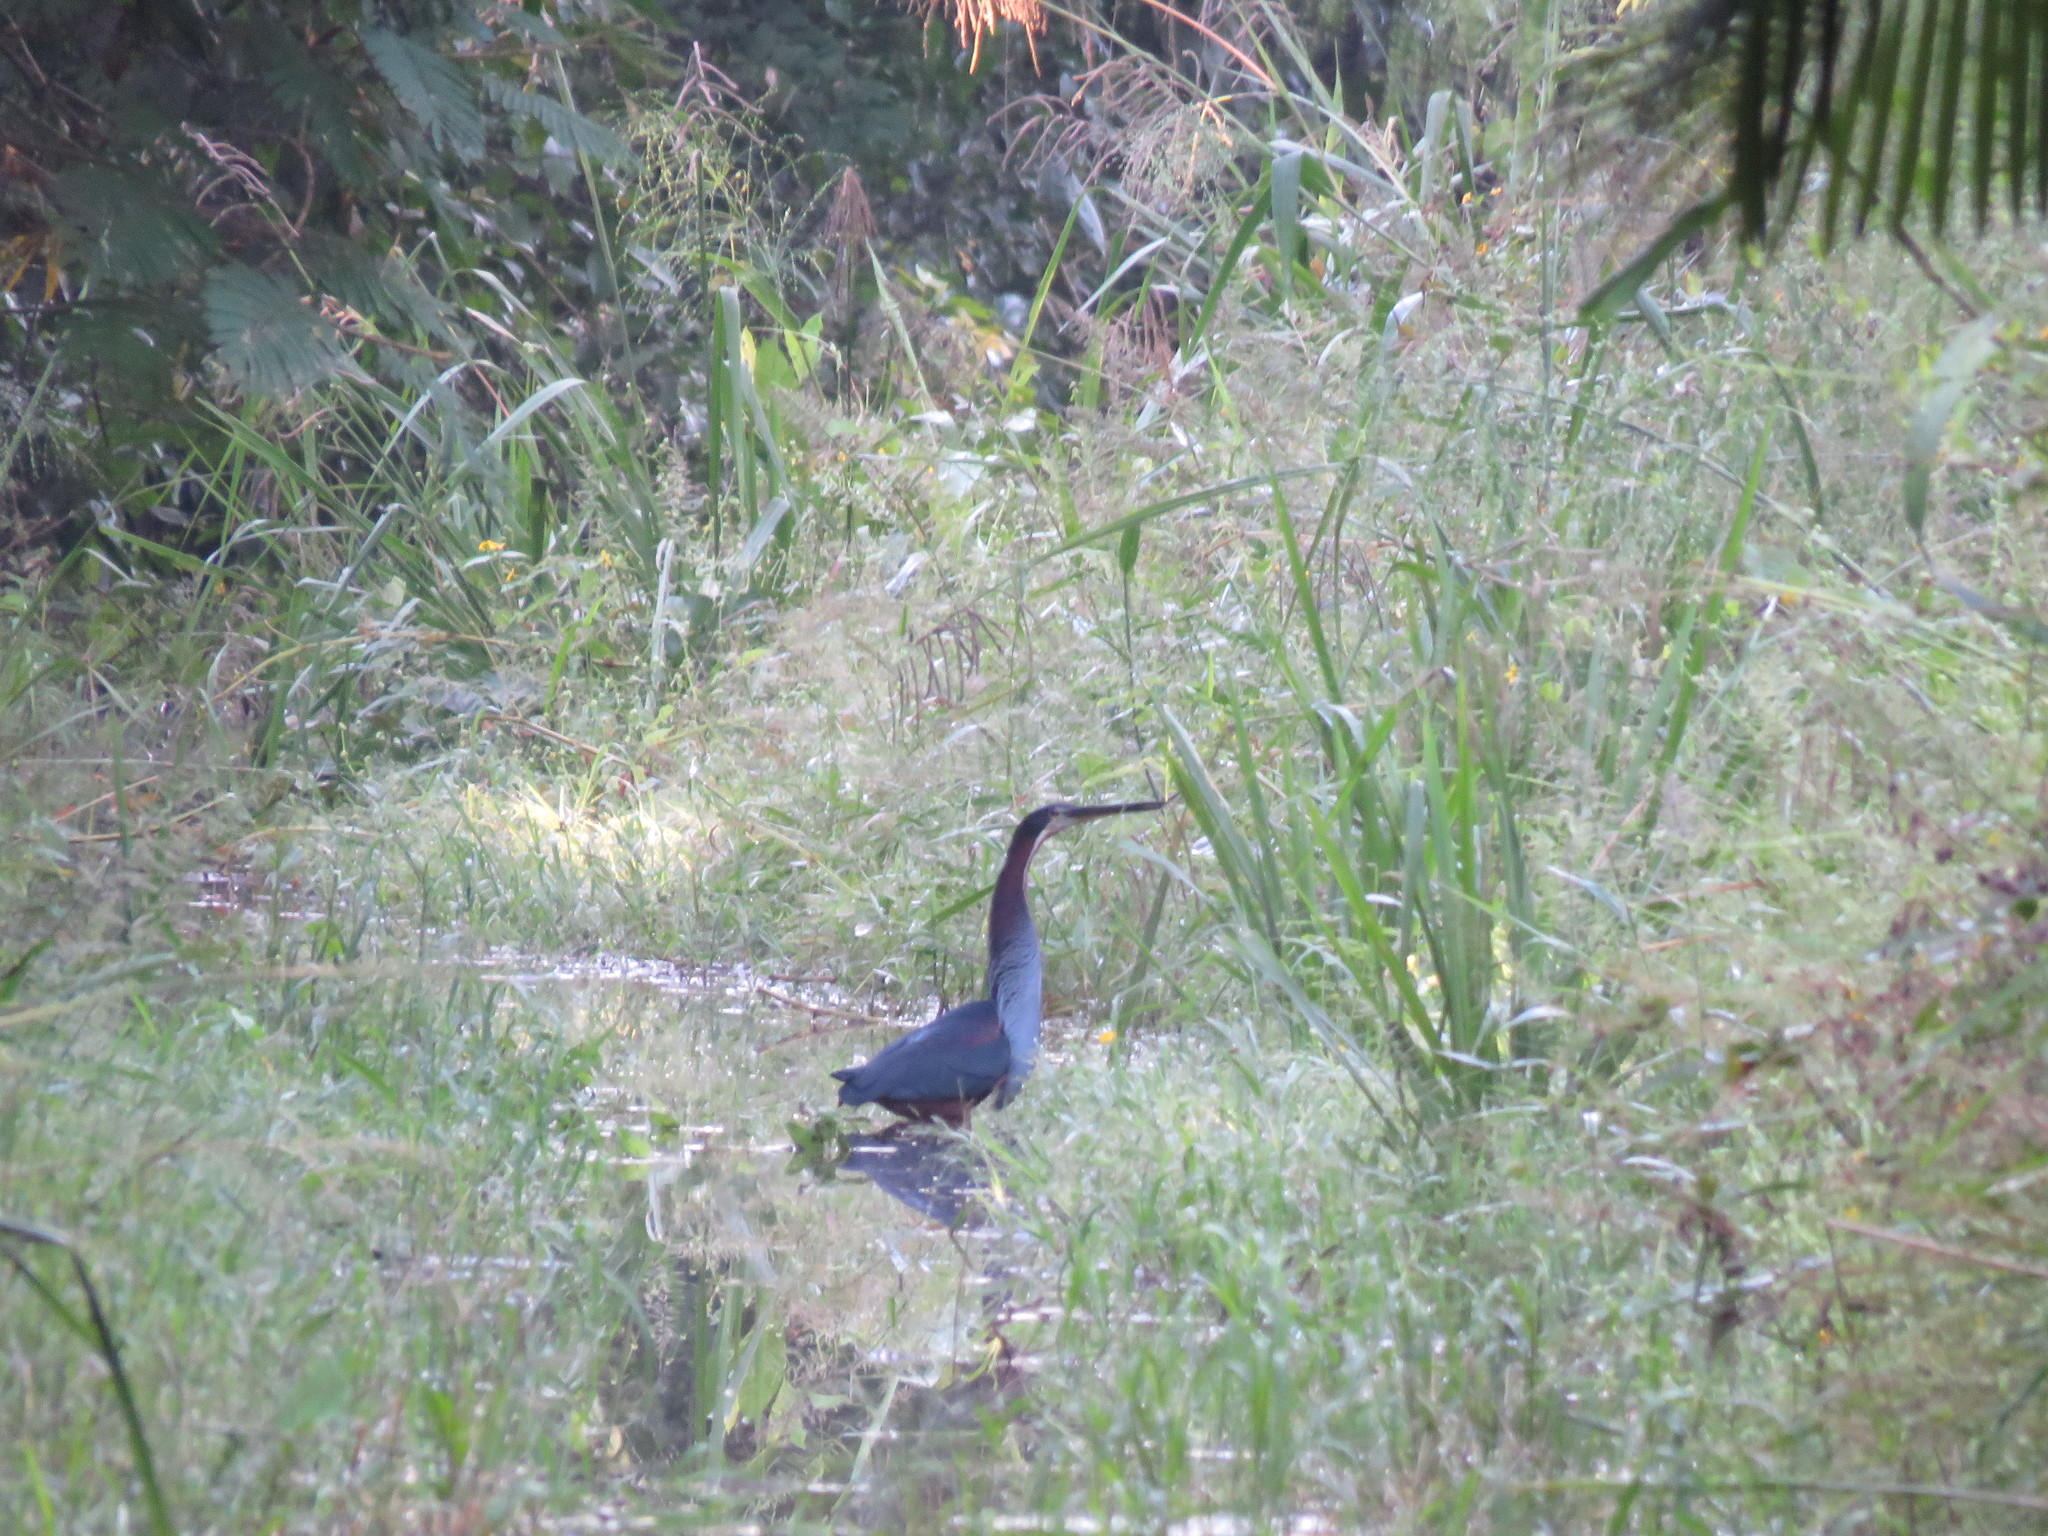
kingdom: Animalia
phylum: Chordata
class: Aves
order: Pelecaniformes
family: Ardeidae
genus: Agamia
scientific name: Agamia agami
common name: Agami heron
